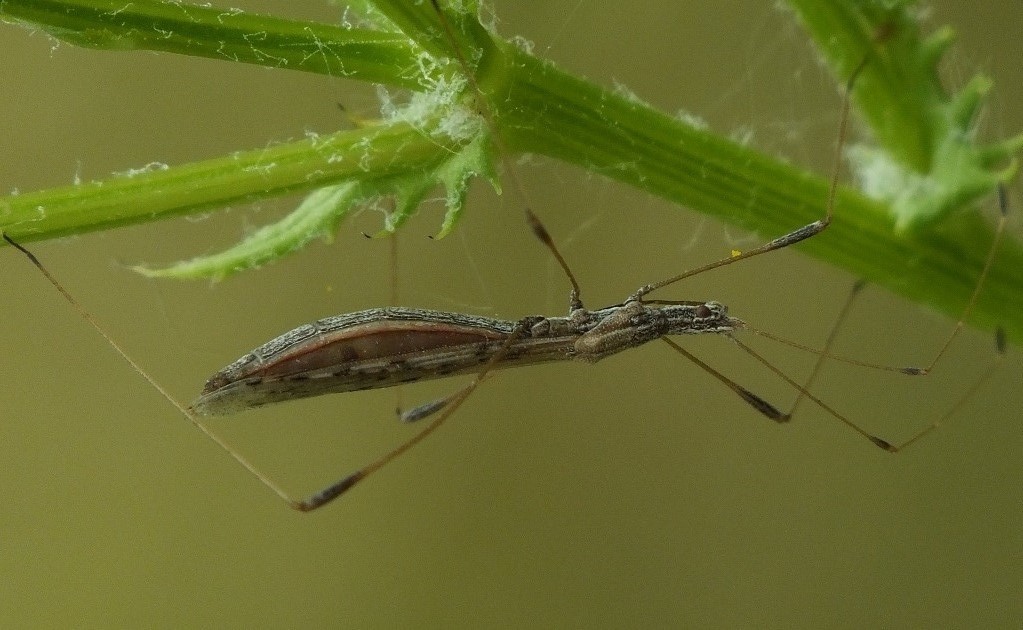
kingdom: Animalia
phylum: Arthropoda
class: Insecta
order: Hemiptera
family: Berytidae
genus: Neides
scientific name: Neides tipularius
